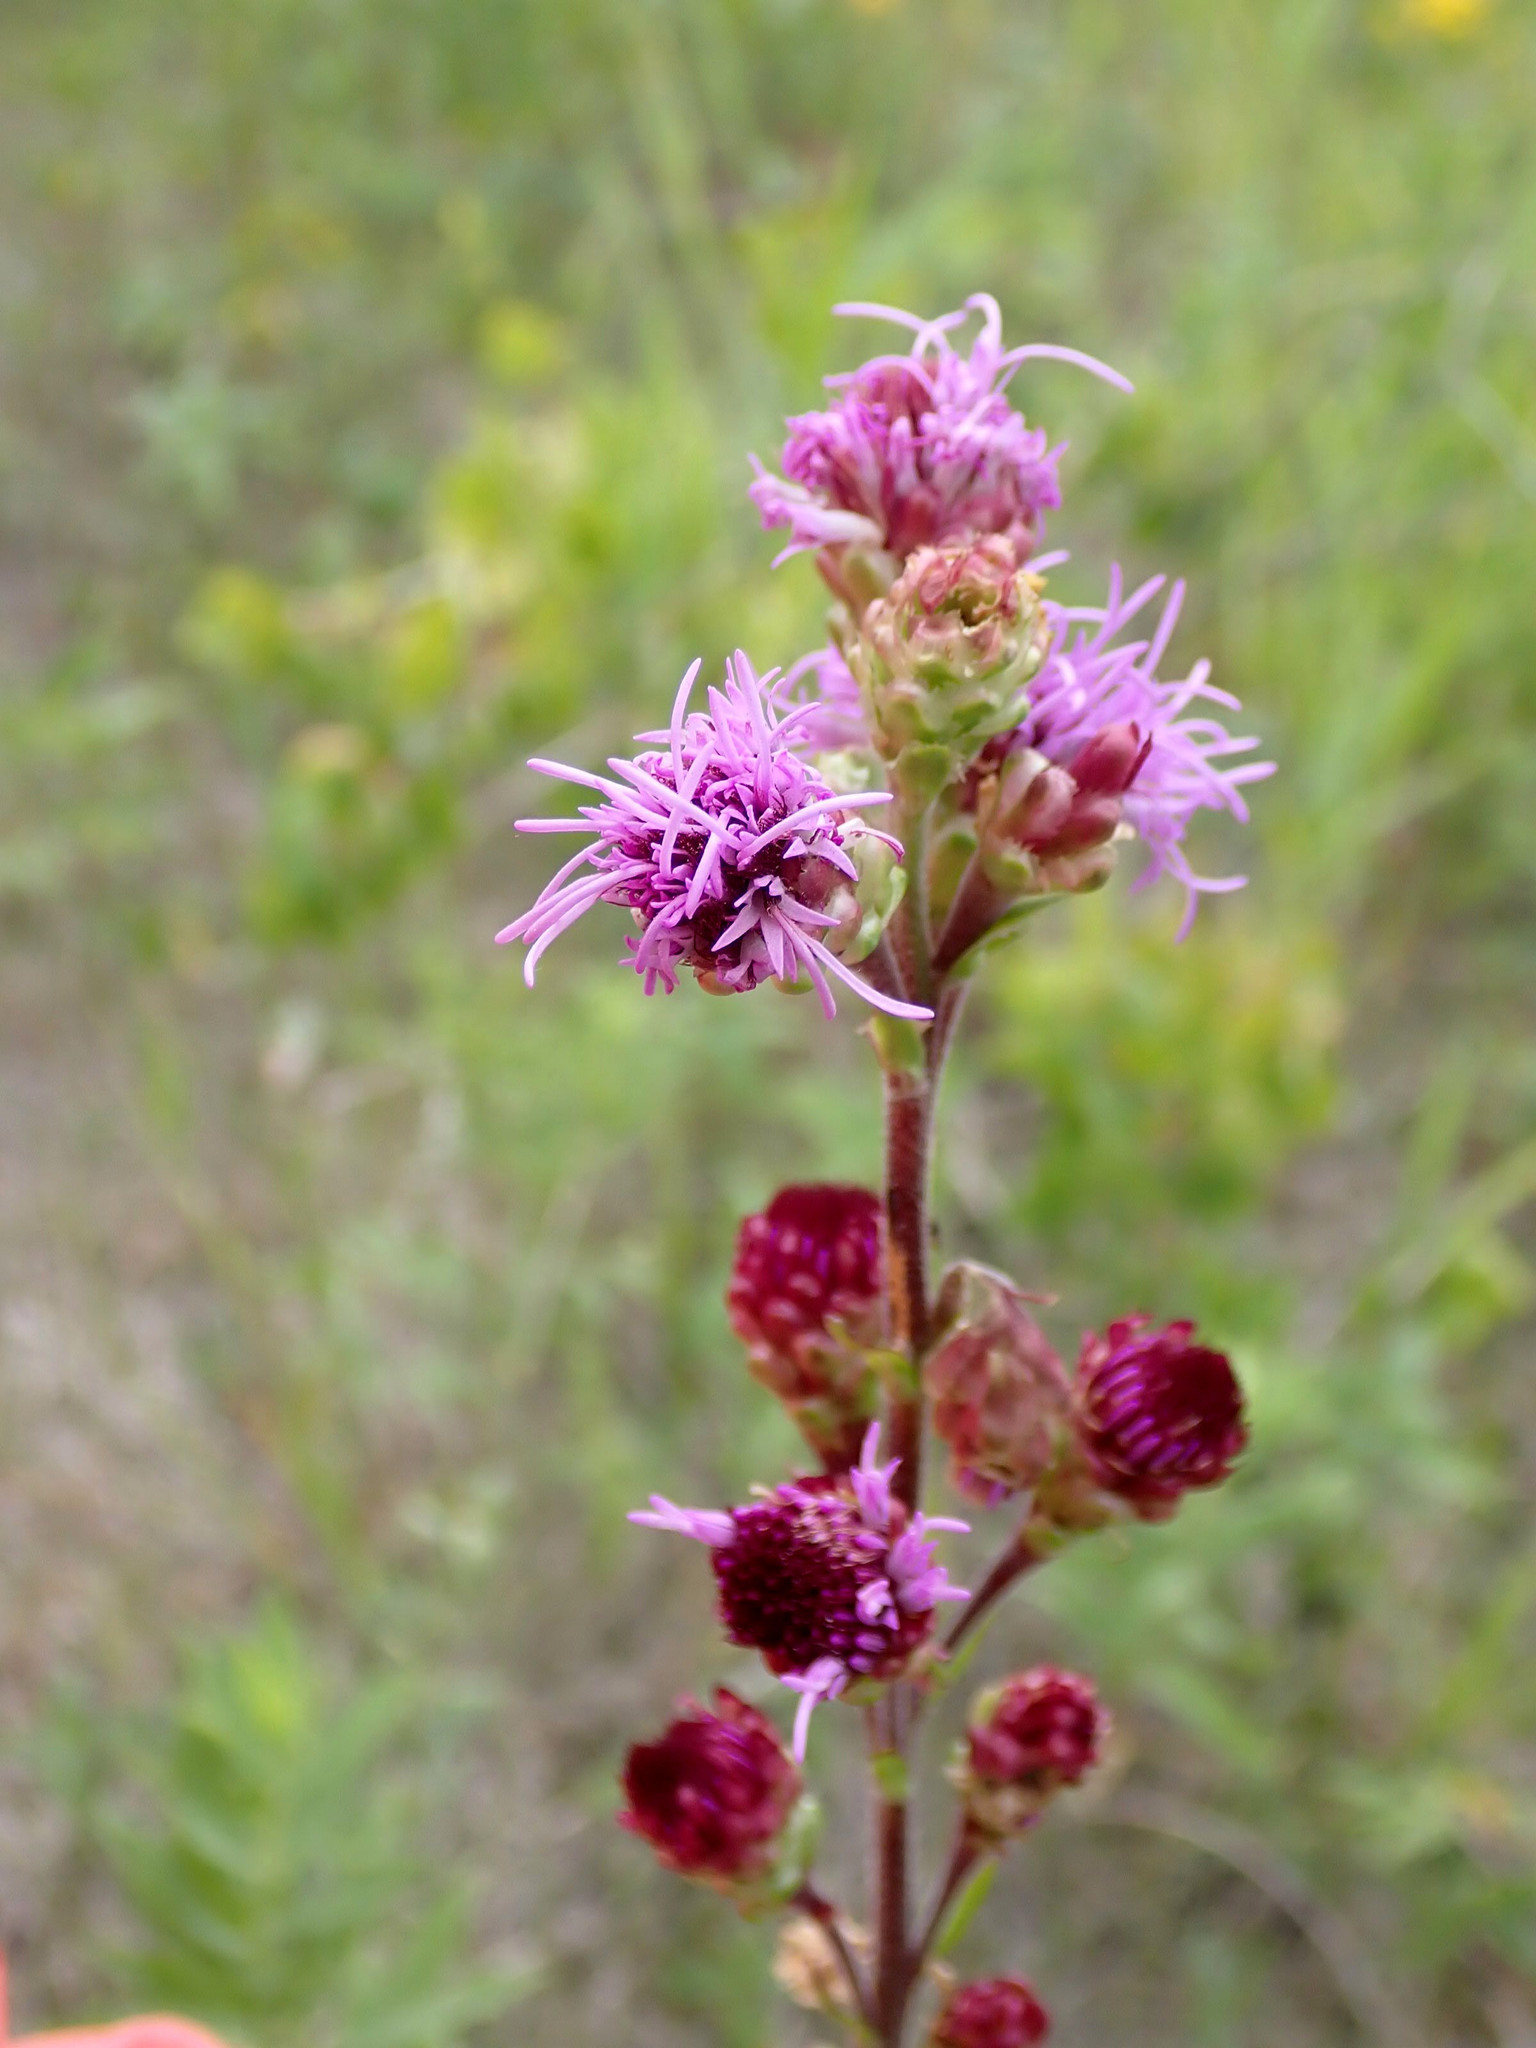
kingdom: Plantae
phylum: Tracheophyta
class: Magnoliopsida
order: Asterales
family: Asteraceae
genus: Liatris
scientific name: Liatris ligulistylis
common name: Northern plains gayfeather
